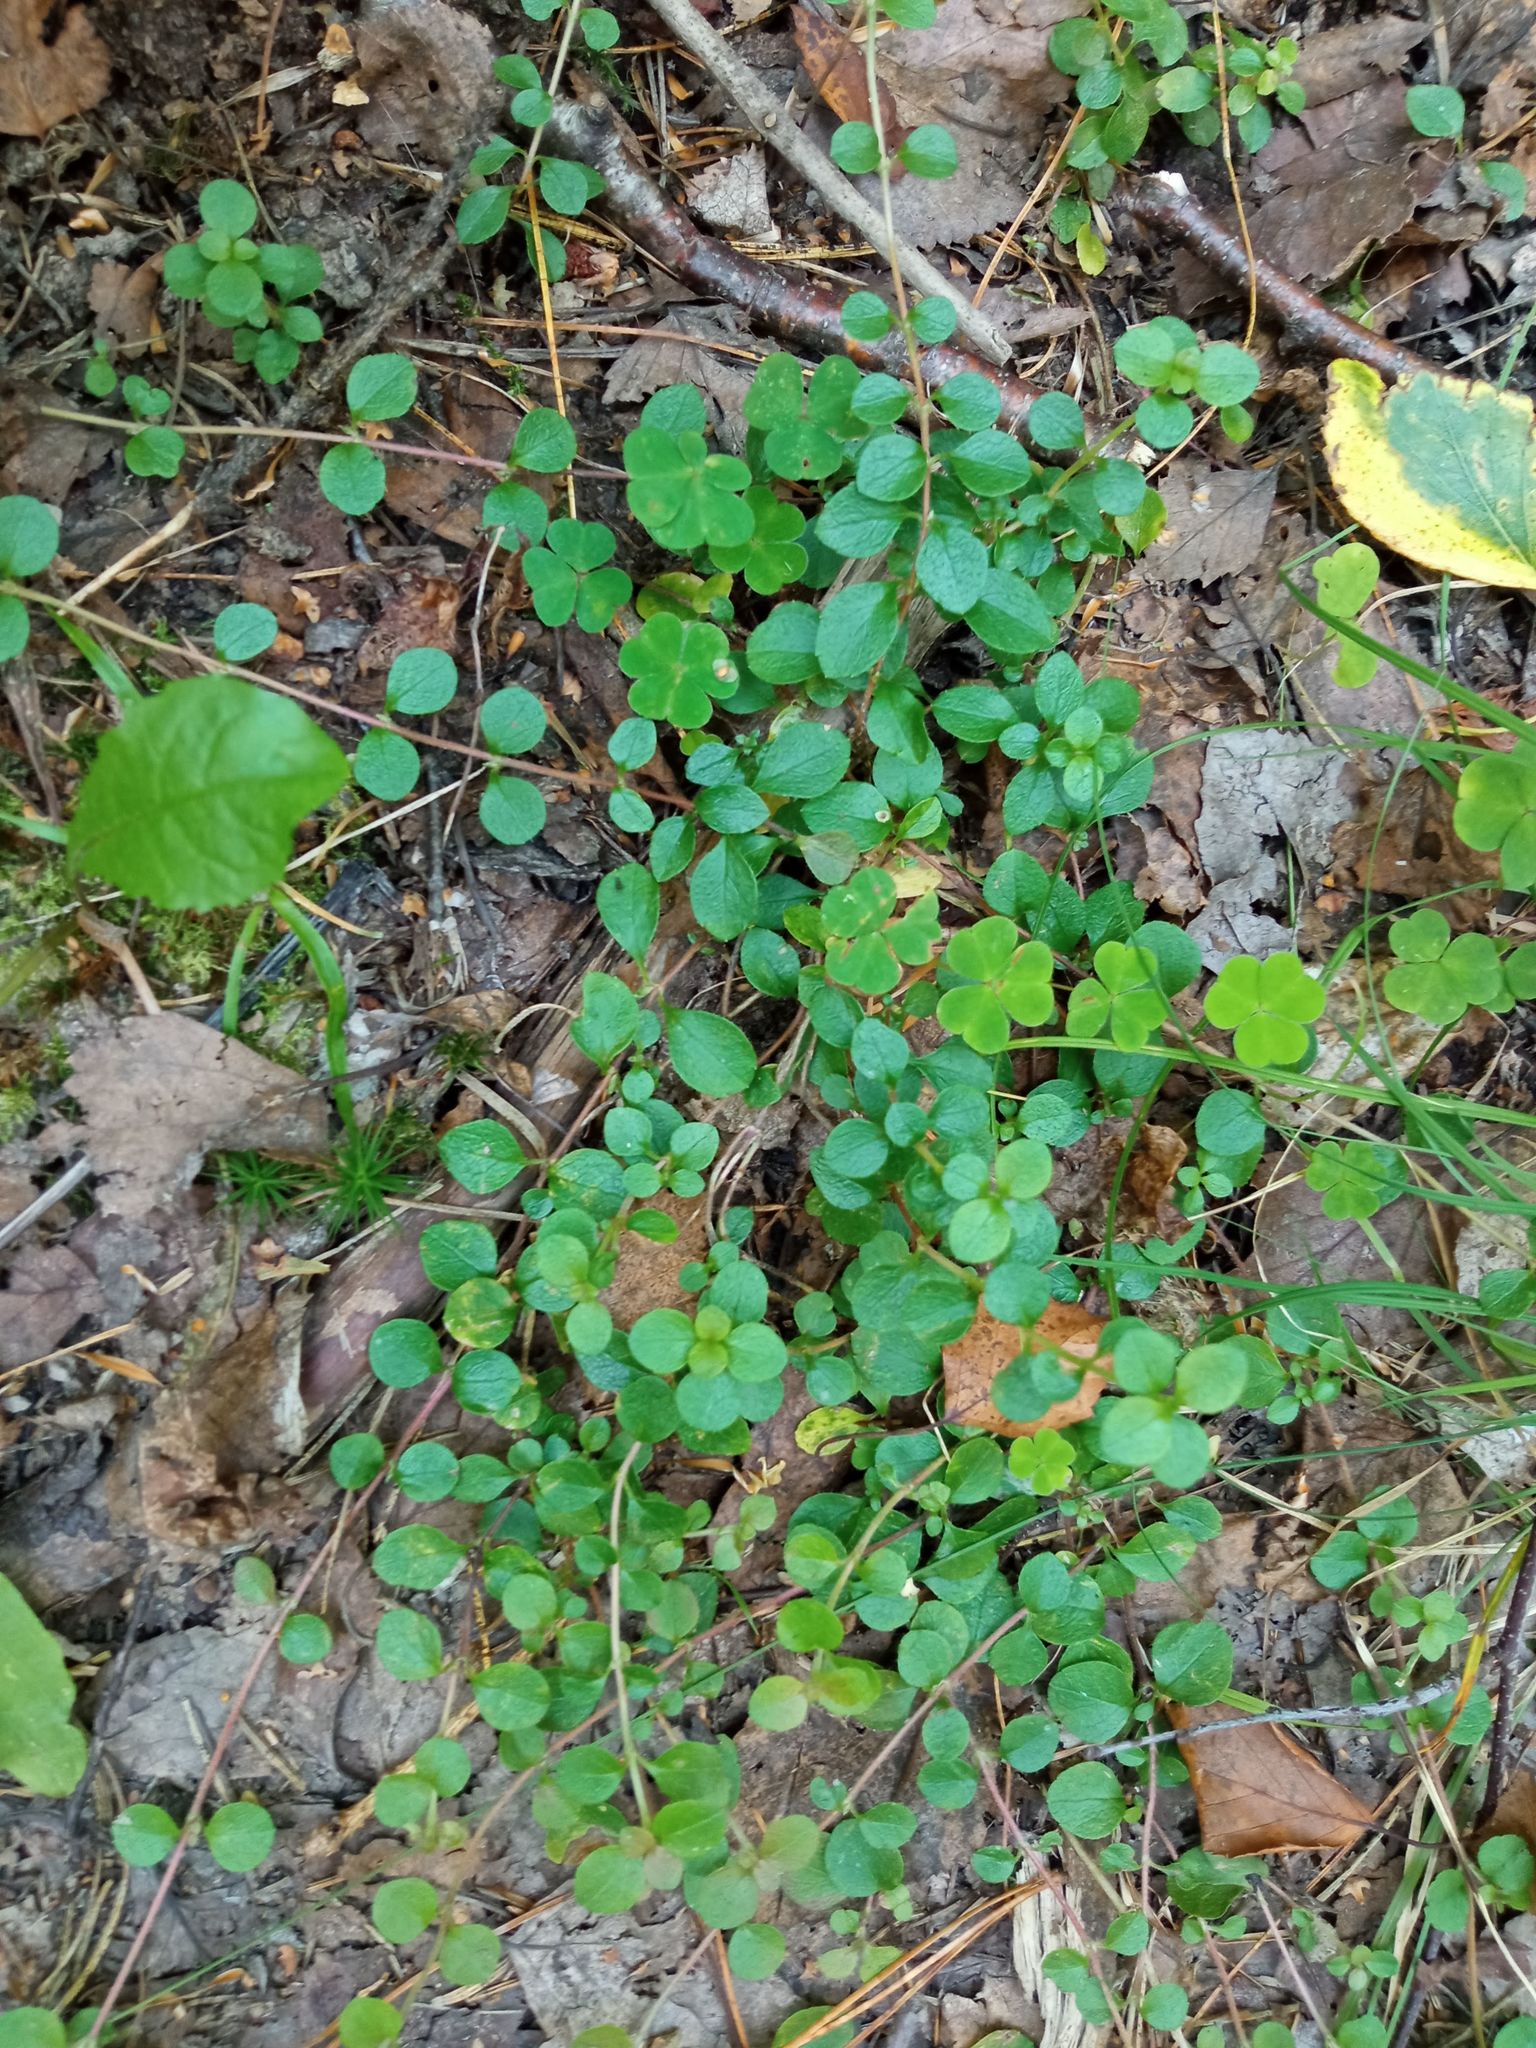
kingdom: Plantae
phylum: Tracheophyta
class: Magnoliopsida
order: Dipsacales
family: Caprifoliaceae
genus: Linnaea
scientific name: Linnaea borealis
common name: Twinflower
